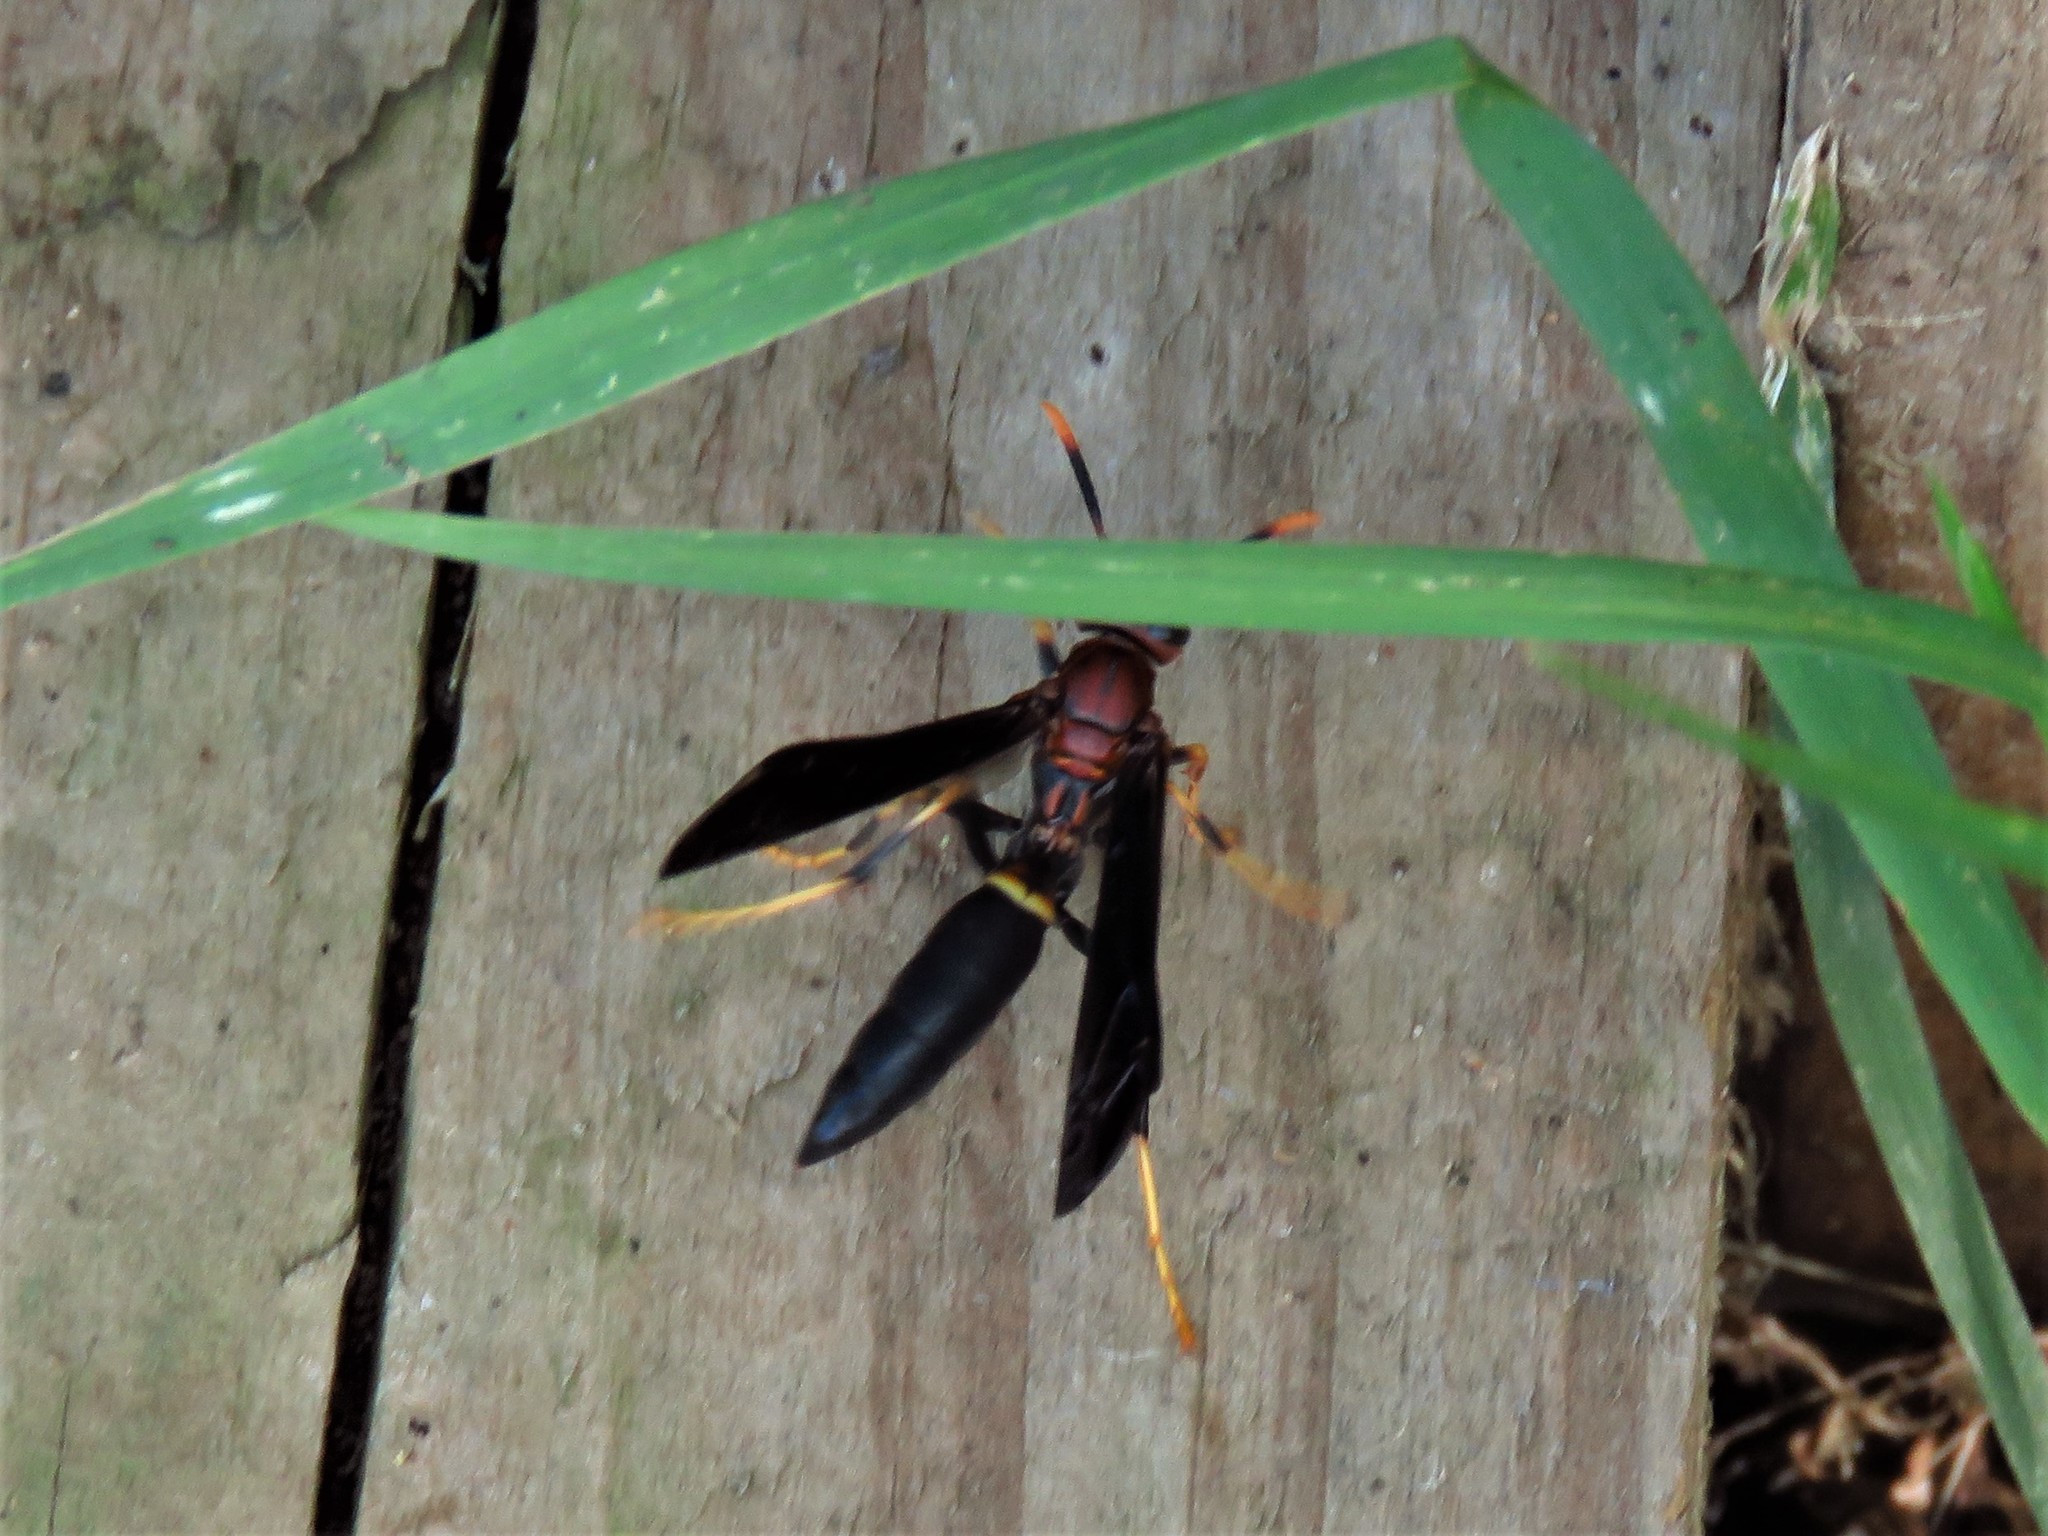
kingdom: Animalia
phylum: Arthropoda
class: Insecta
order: Hymenoptera
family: Eumenidae
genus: Polistes
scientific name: Polistes annularis
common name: Ringed paper wasp
